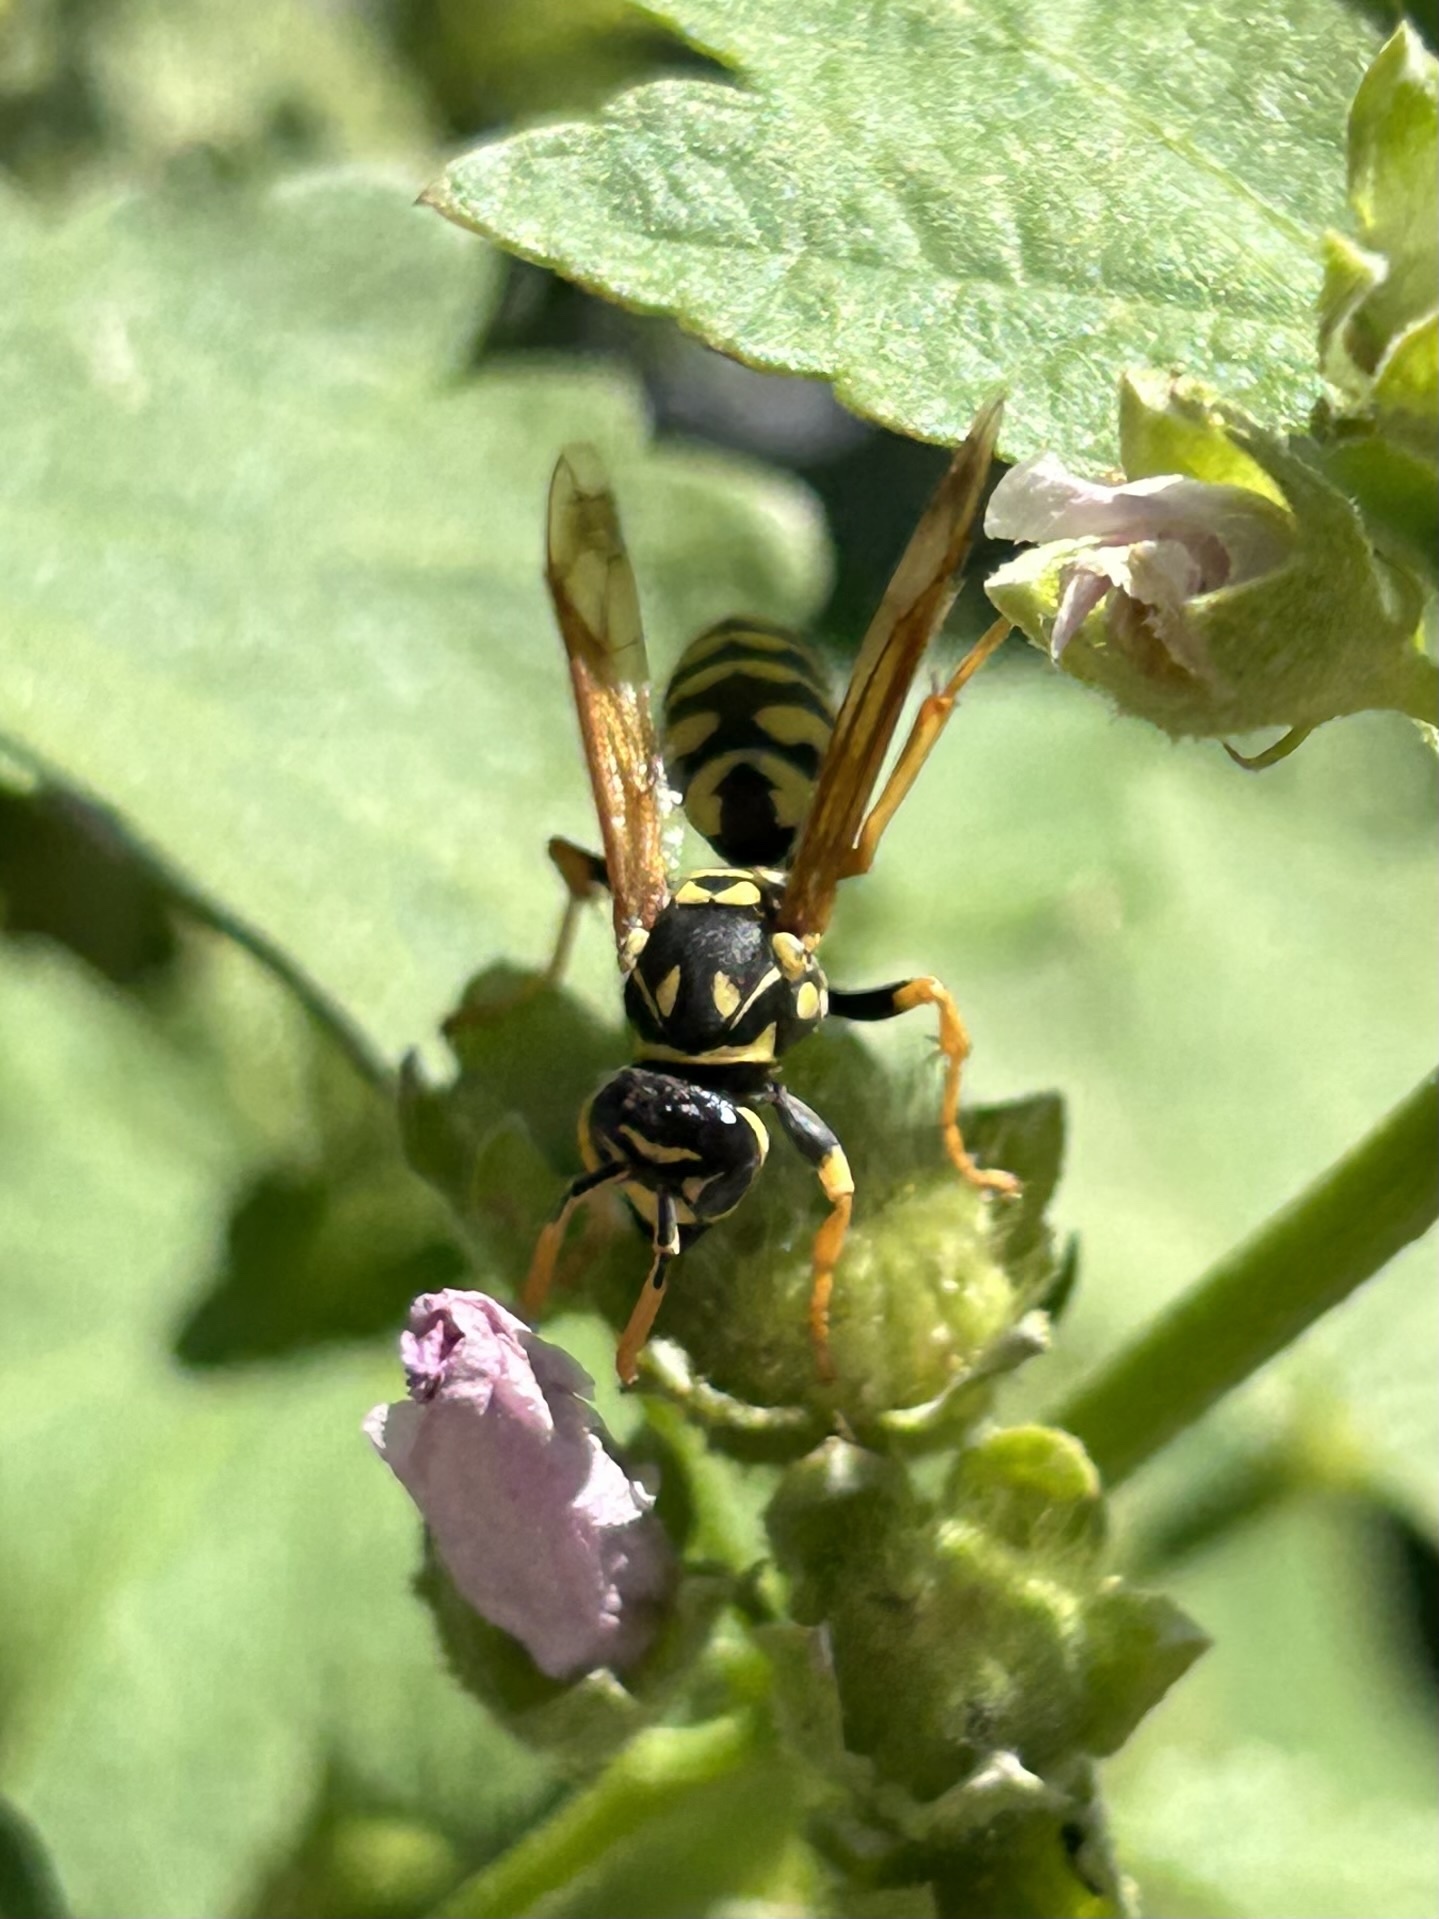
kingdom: Animalia
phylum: Arthropoda
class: Insecta
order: Hymenoptera
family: Eumenidae
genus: Polistes
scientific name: Polistes dominula
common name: Paper wasp
